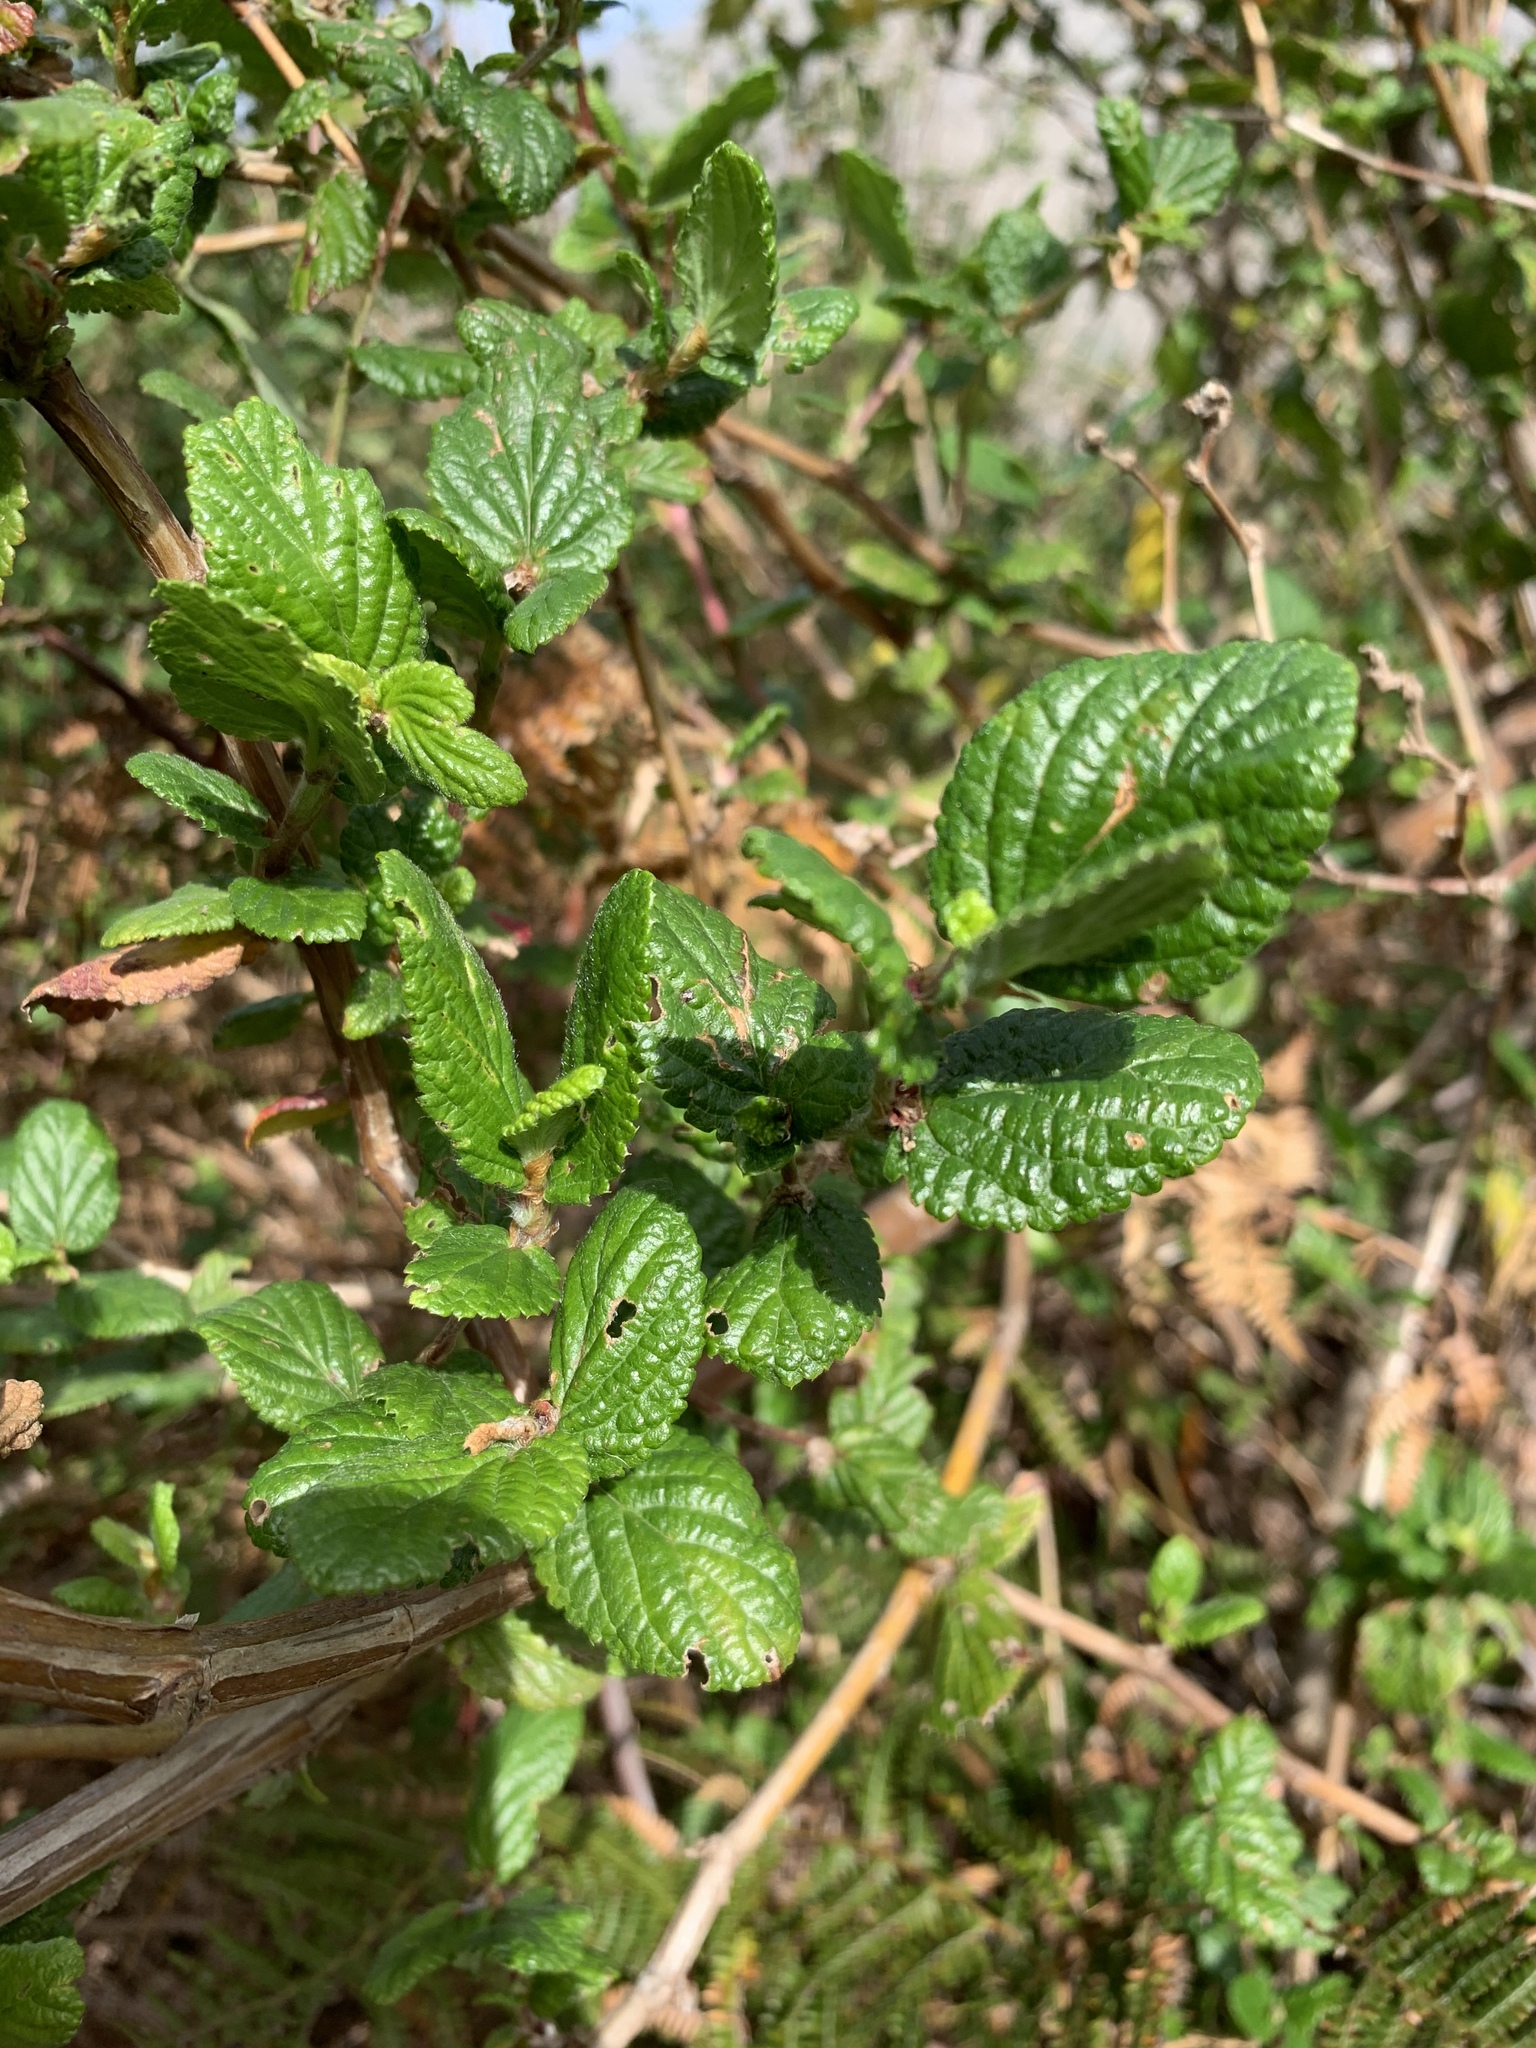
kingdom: Plantae
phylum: Tracheophyta
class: Magnoliopsida
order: Rosales
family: Rosaceae
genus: Cliffortia
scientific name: Cliffortia odorata
